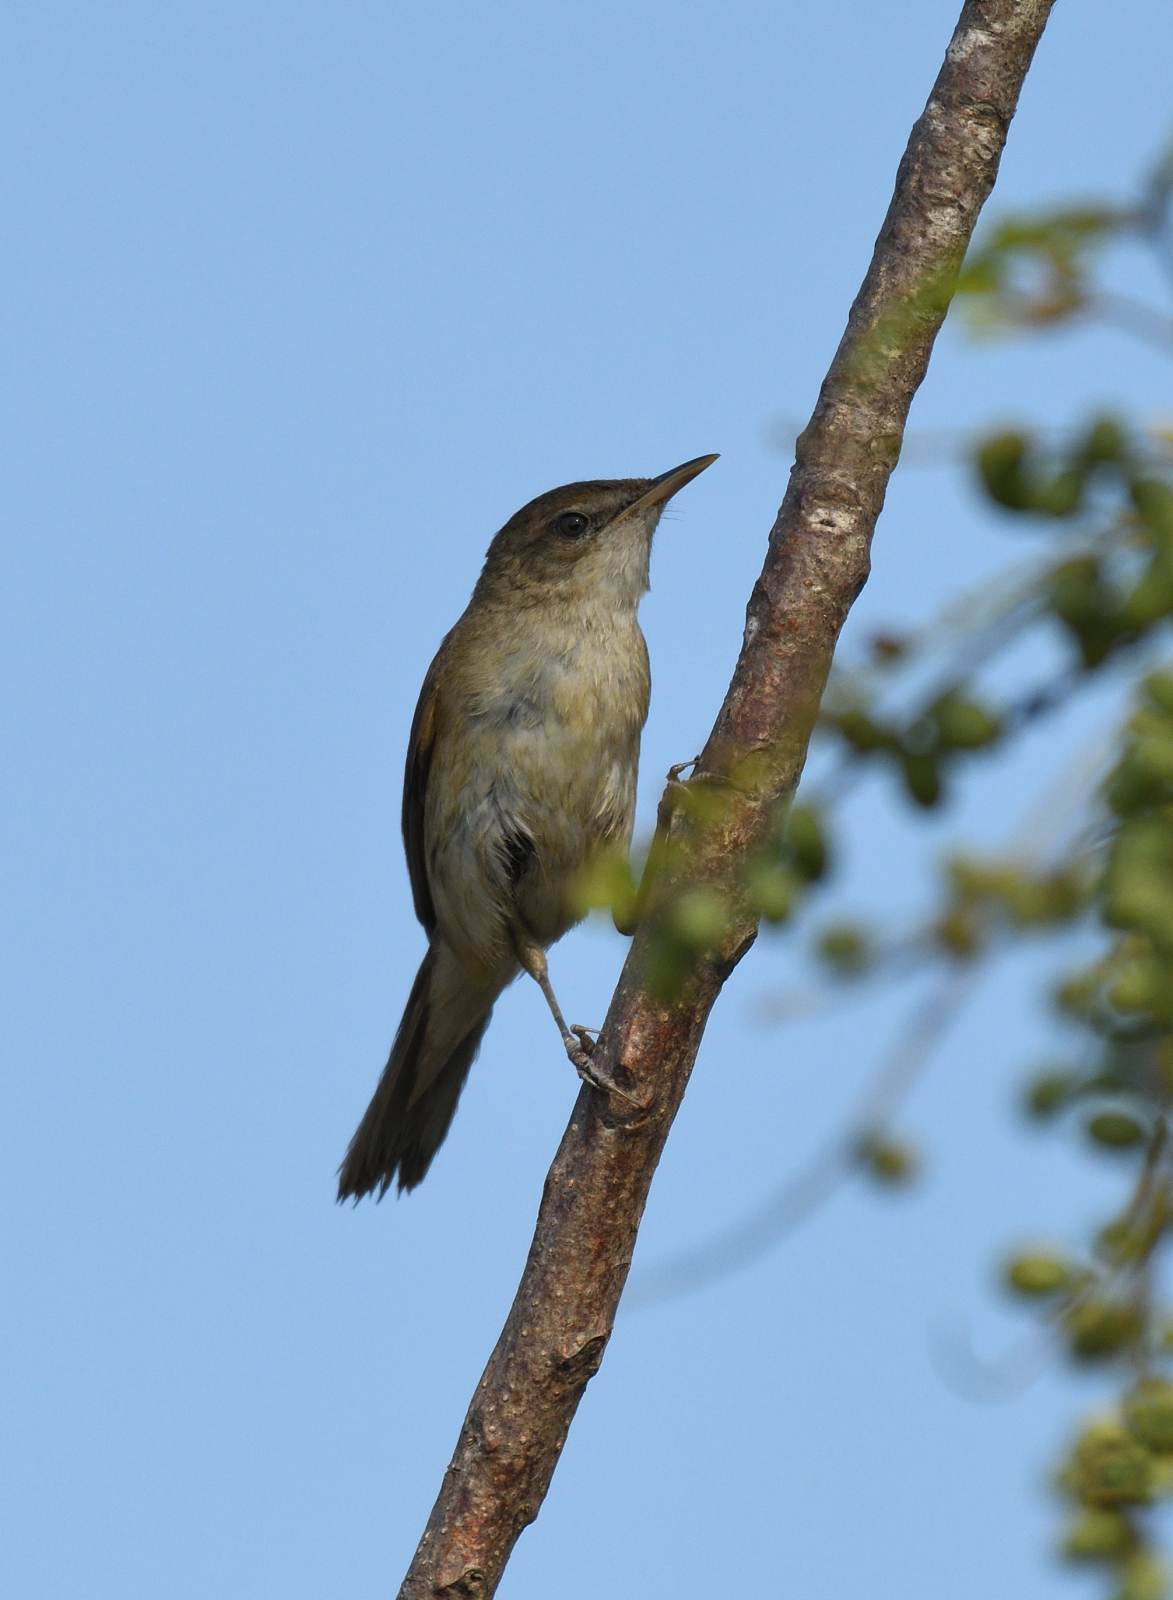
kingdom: Animalia
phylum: Chordata
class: Aves
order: Passeriformes
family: Acrocephalidae
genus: Acrocephalus
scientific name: Acrocephalus dumetorum
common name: Blyth's reed warbler
